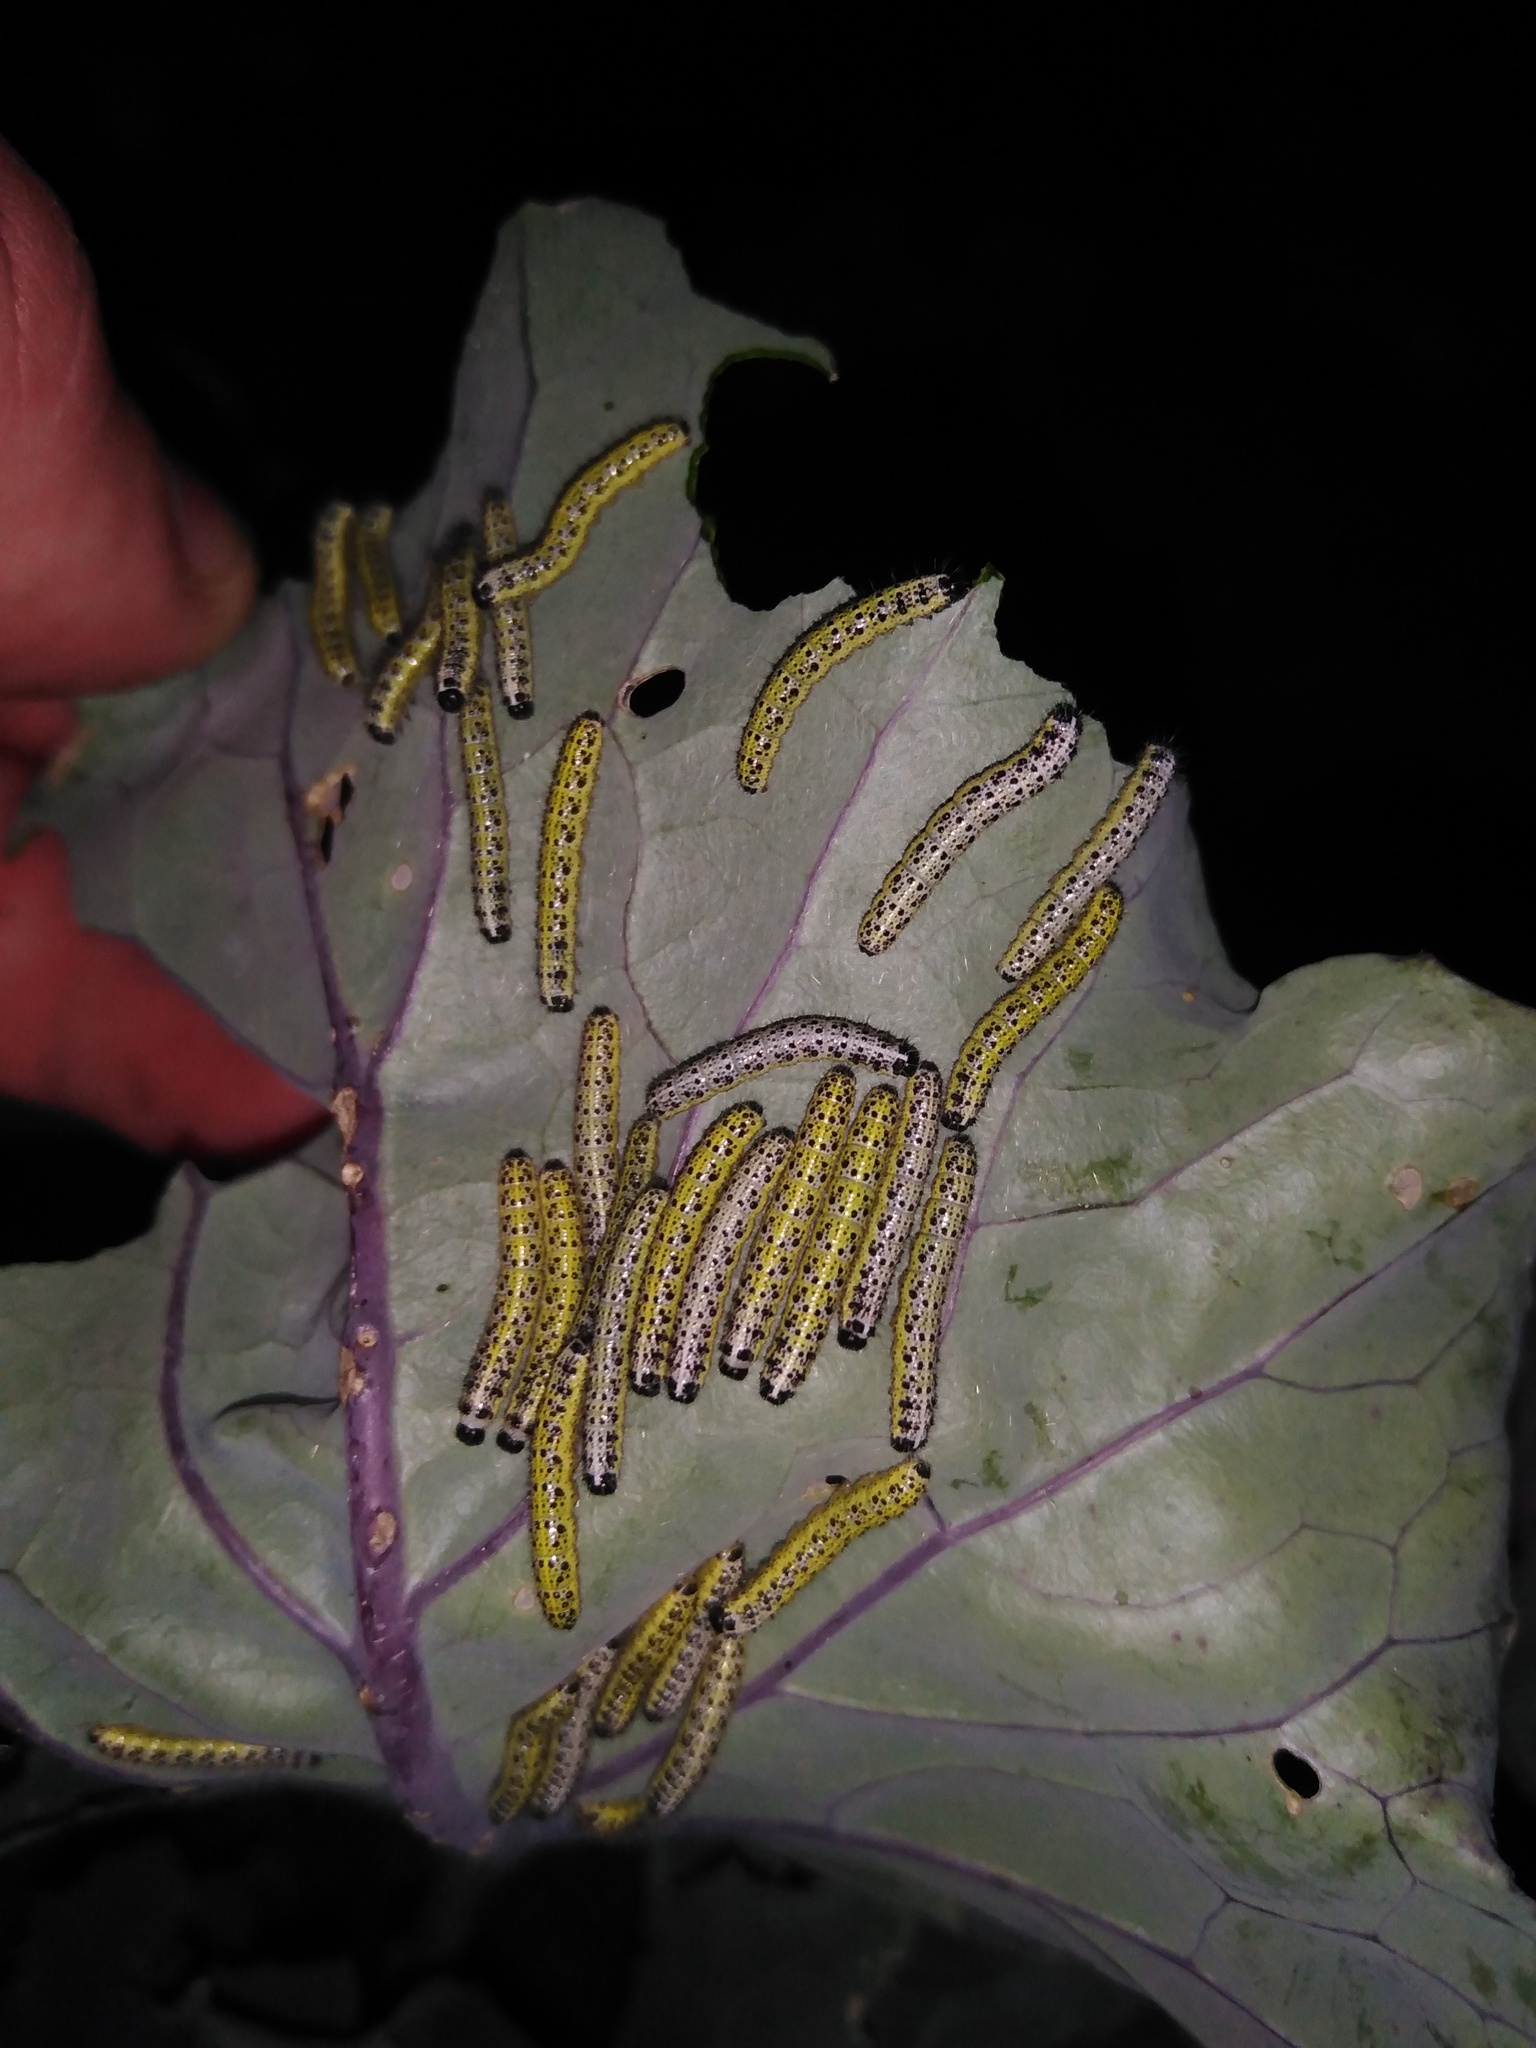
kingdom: Animalia
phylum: Arthropoda
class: Insecta
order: Lepidoptera
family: Pieridae
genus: Pieris
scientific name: Pieris brassicae
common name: Large white
